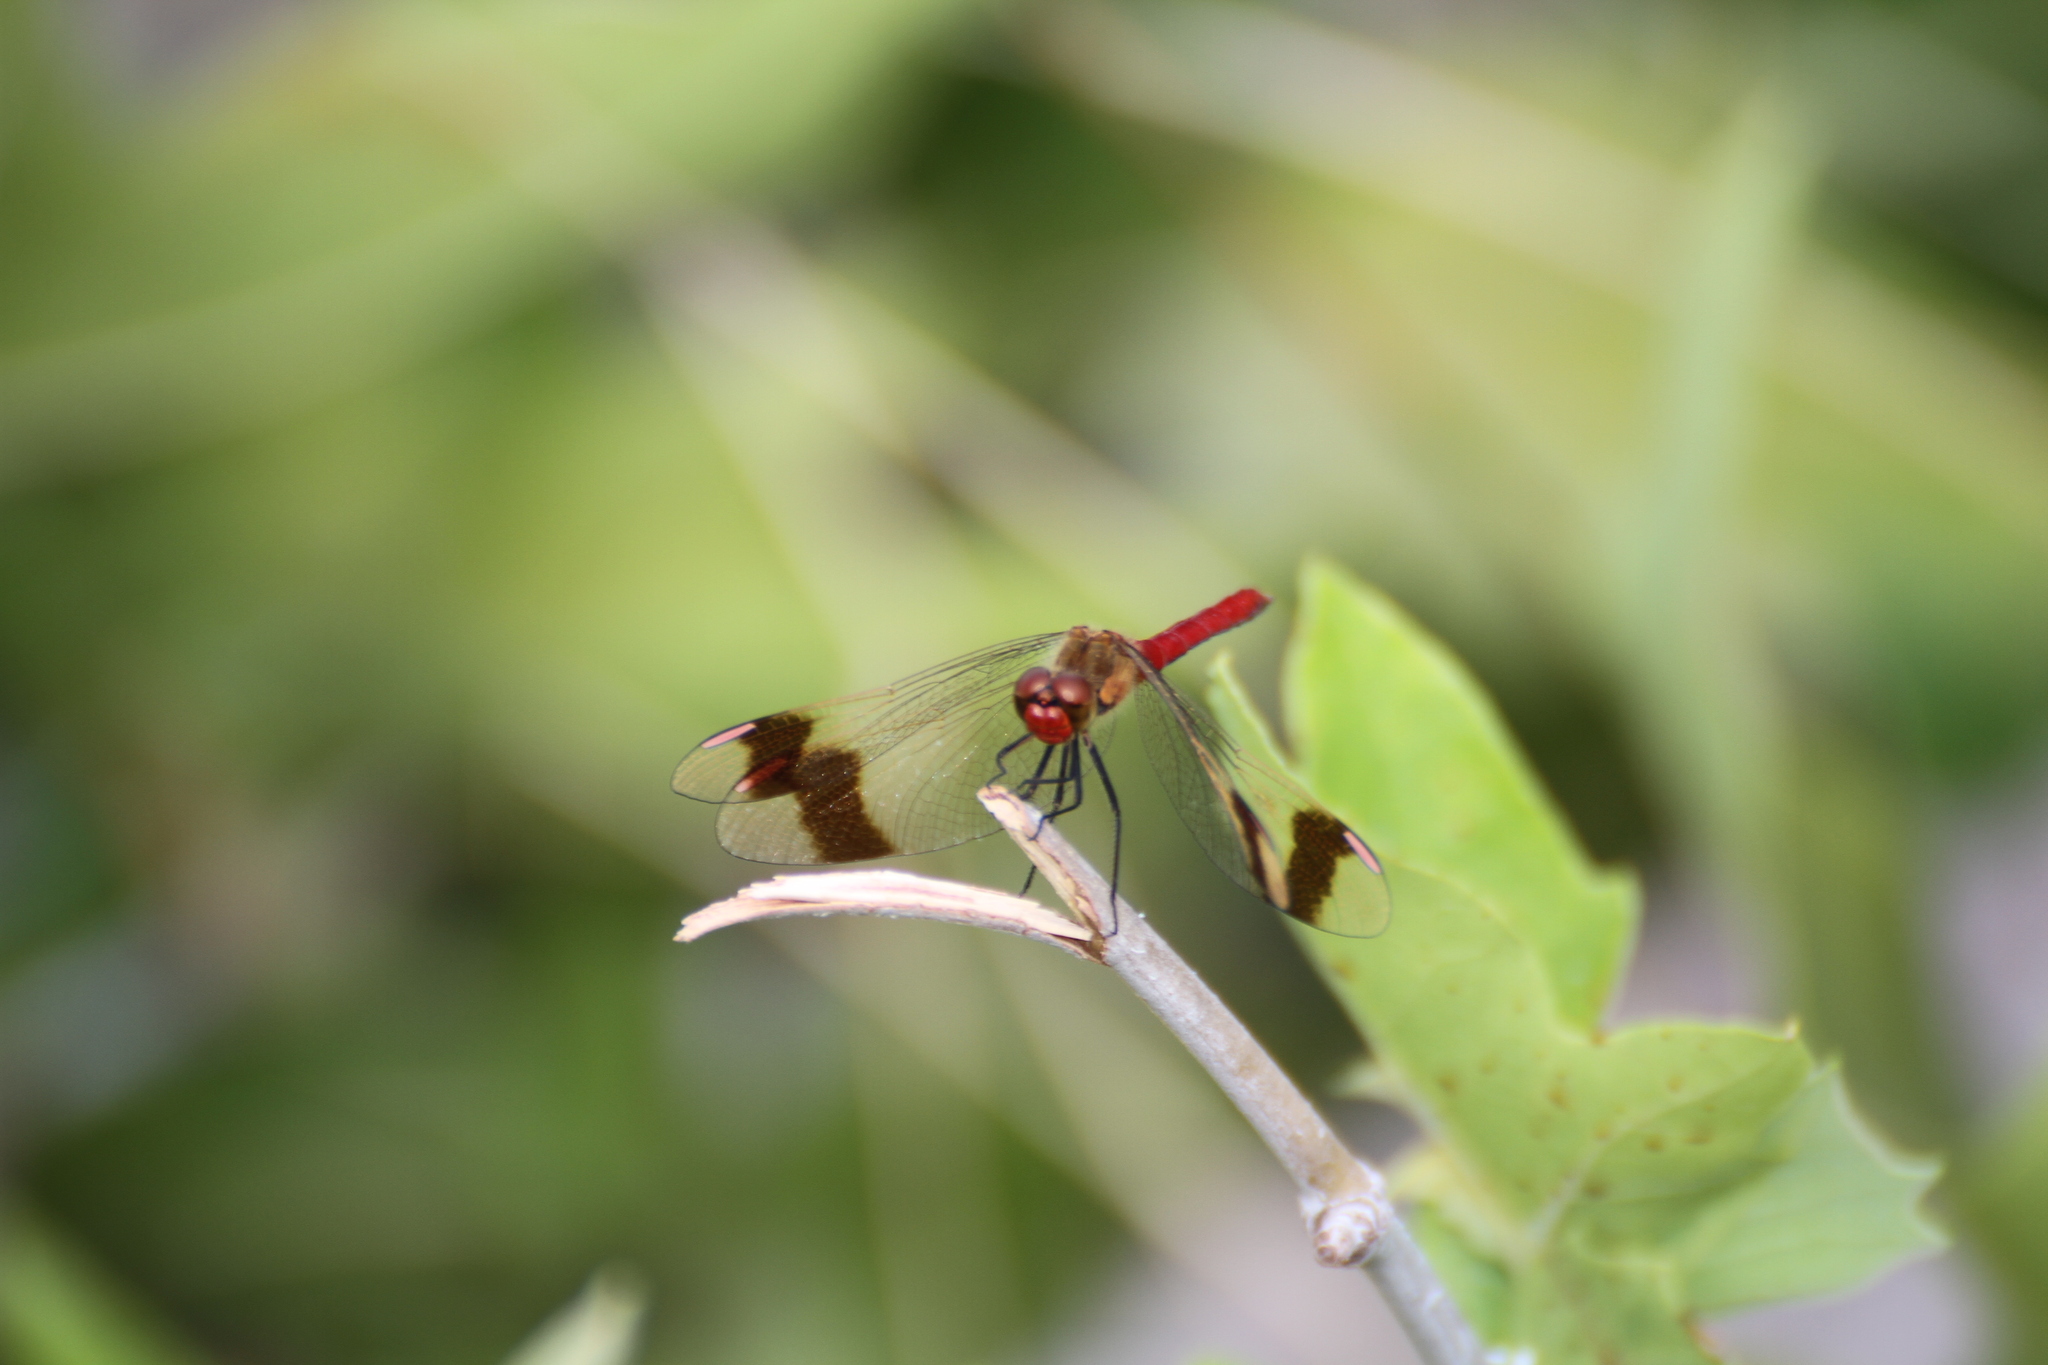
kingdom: Animalia
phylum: Arthropoda
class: Insecta
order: Odonata
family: Libellulidae
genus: Sympetrum
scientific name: Sympetrum pedemontanum
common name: Banded darter
